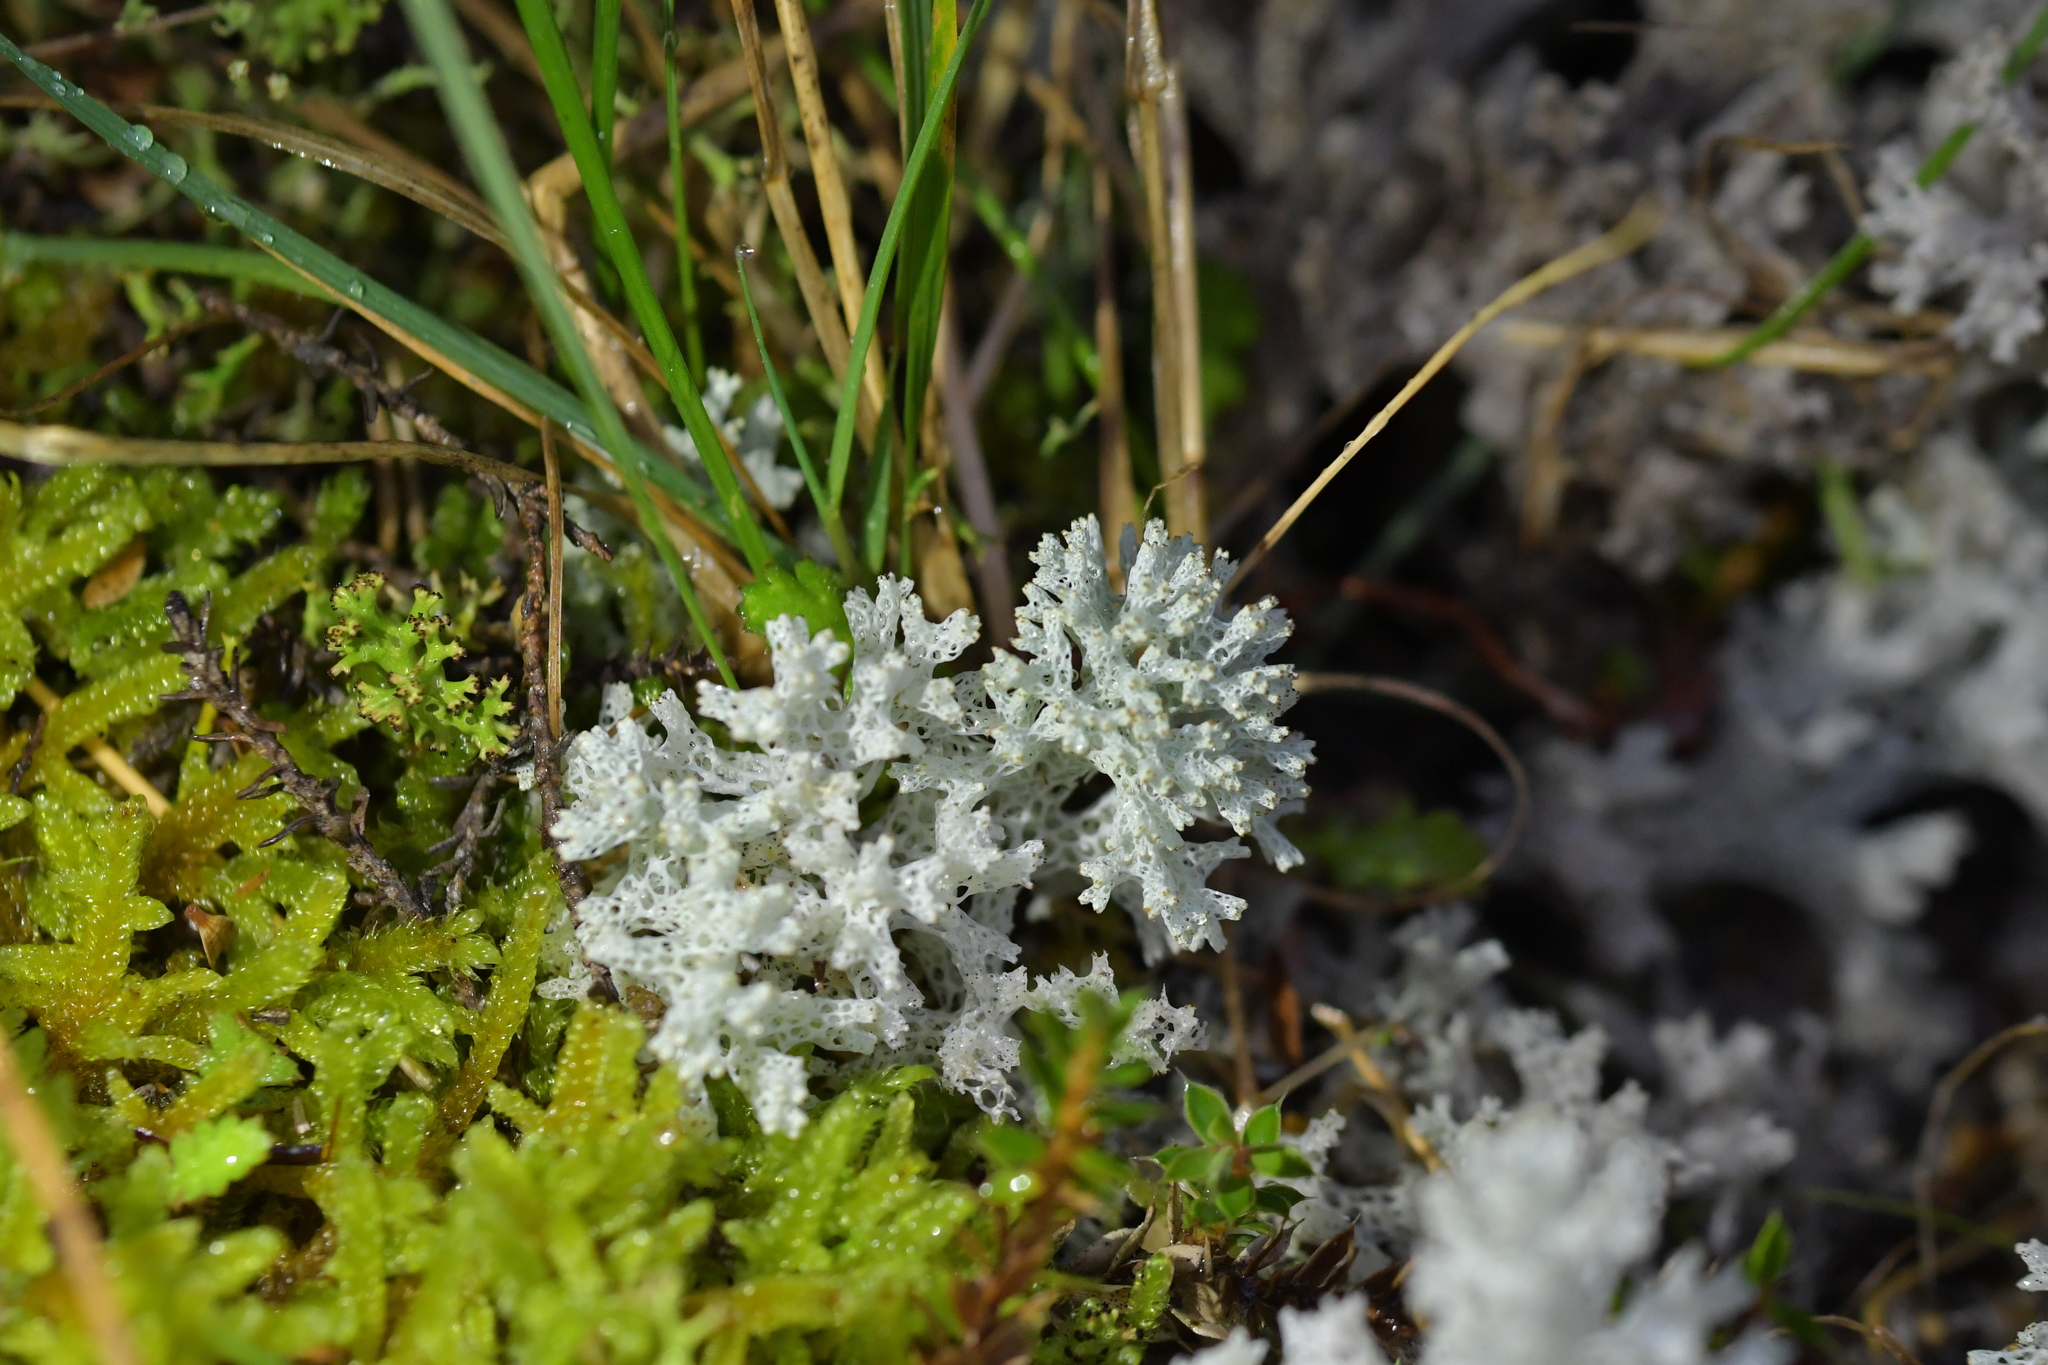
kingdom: Fungi
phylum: Ascomycota
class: Lecanoromycetes
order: Lecanorales
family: Cladoniaceae
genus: Pulchrocladia
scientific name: Pulchrocladia retipora
